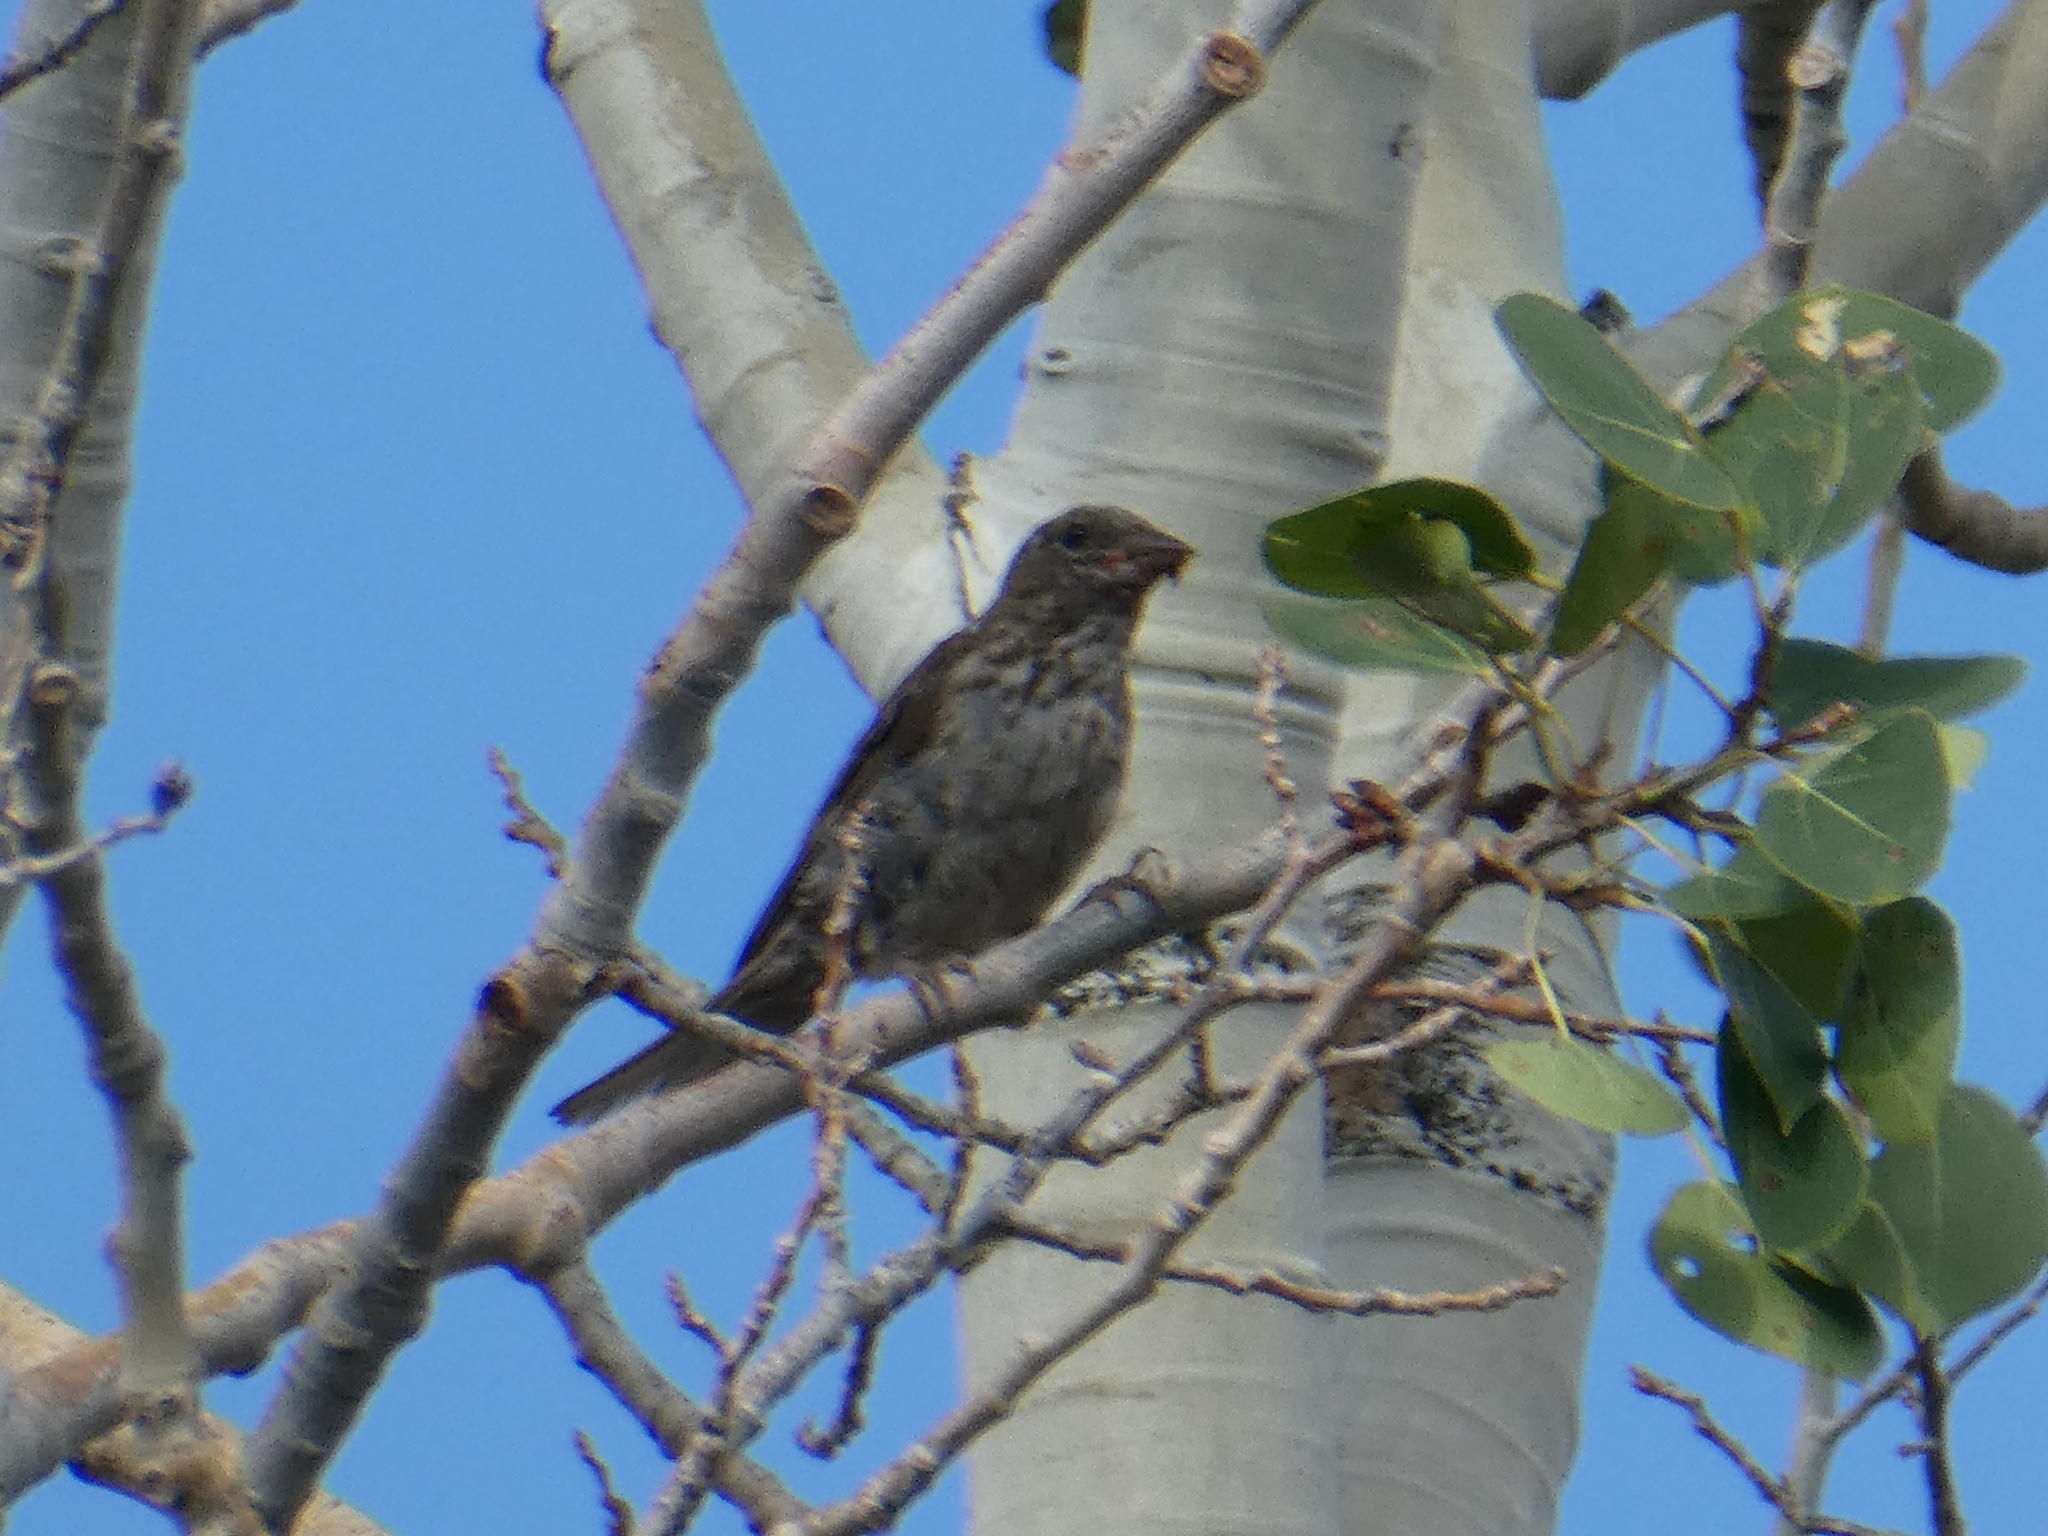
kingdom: Animalia
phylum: Chordata
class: Aves
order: Passeriformes
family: Fringillidae
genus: Haemorhous
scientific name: Haemorhous cassinii
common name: Cassin's finch
